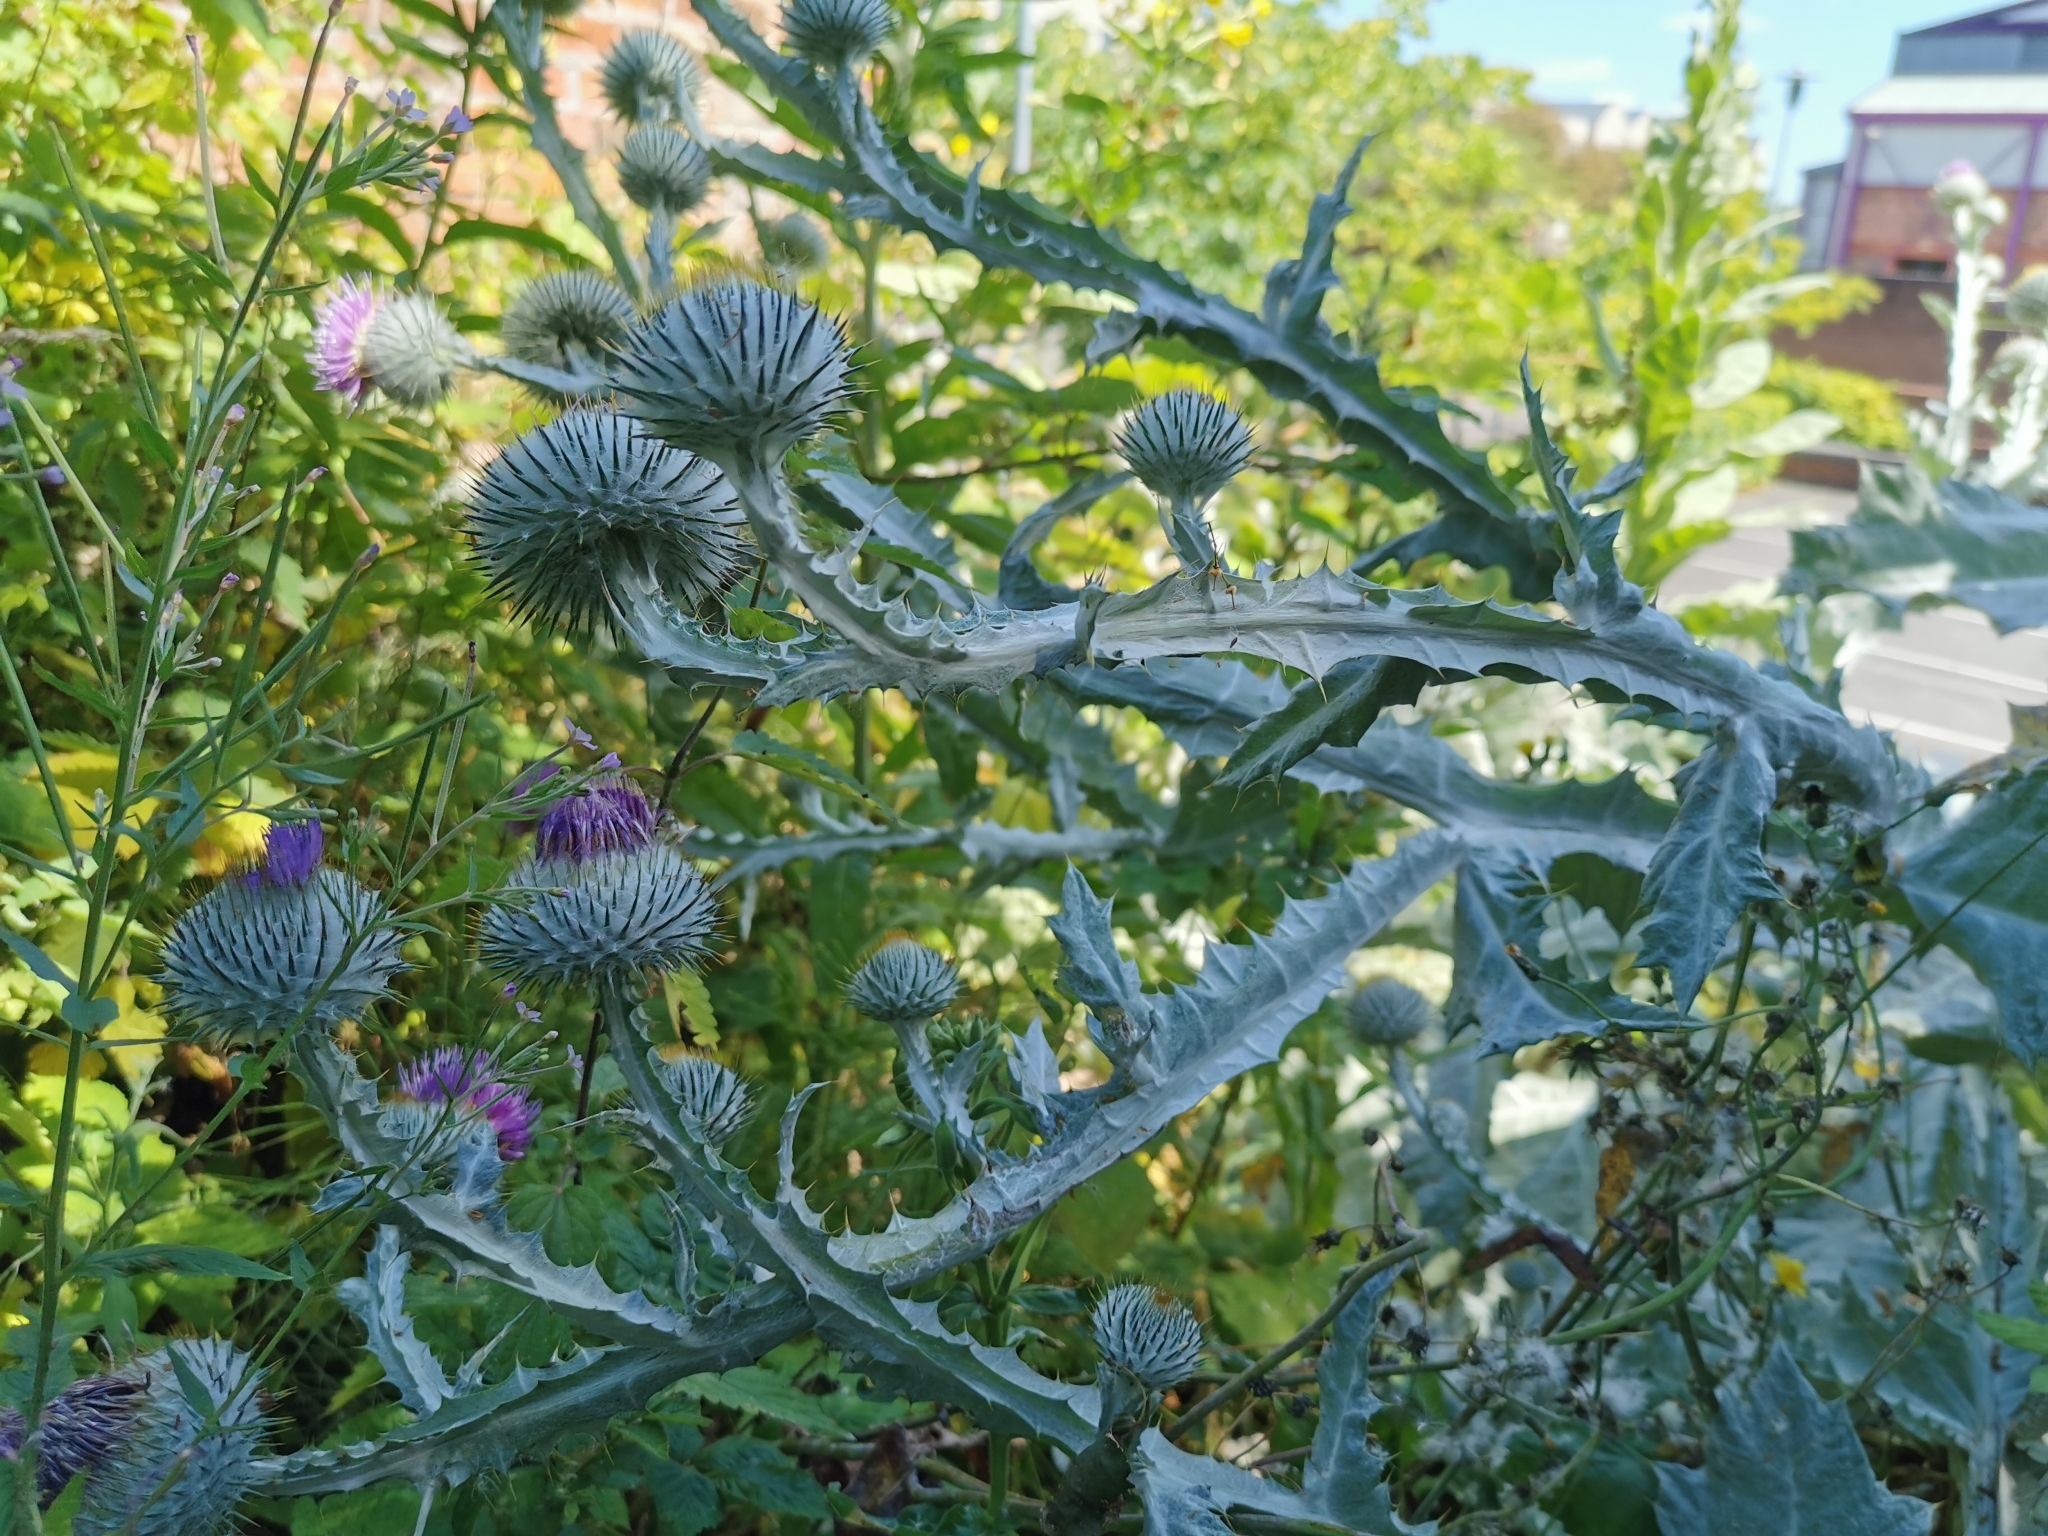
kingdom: Plantae
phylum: Tracheophyta
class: Magnoliopsida
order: Asterales
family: Asteraceae
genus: Onopordum
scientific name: Onopordum acanthium
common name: Scotch thistle
